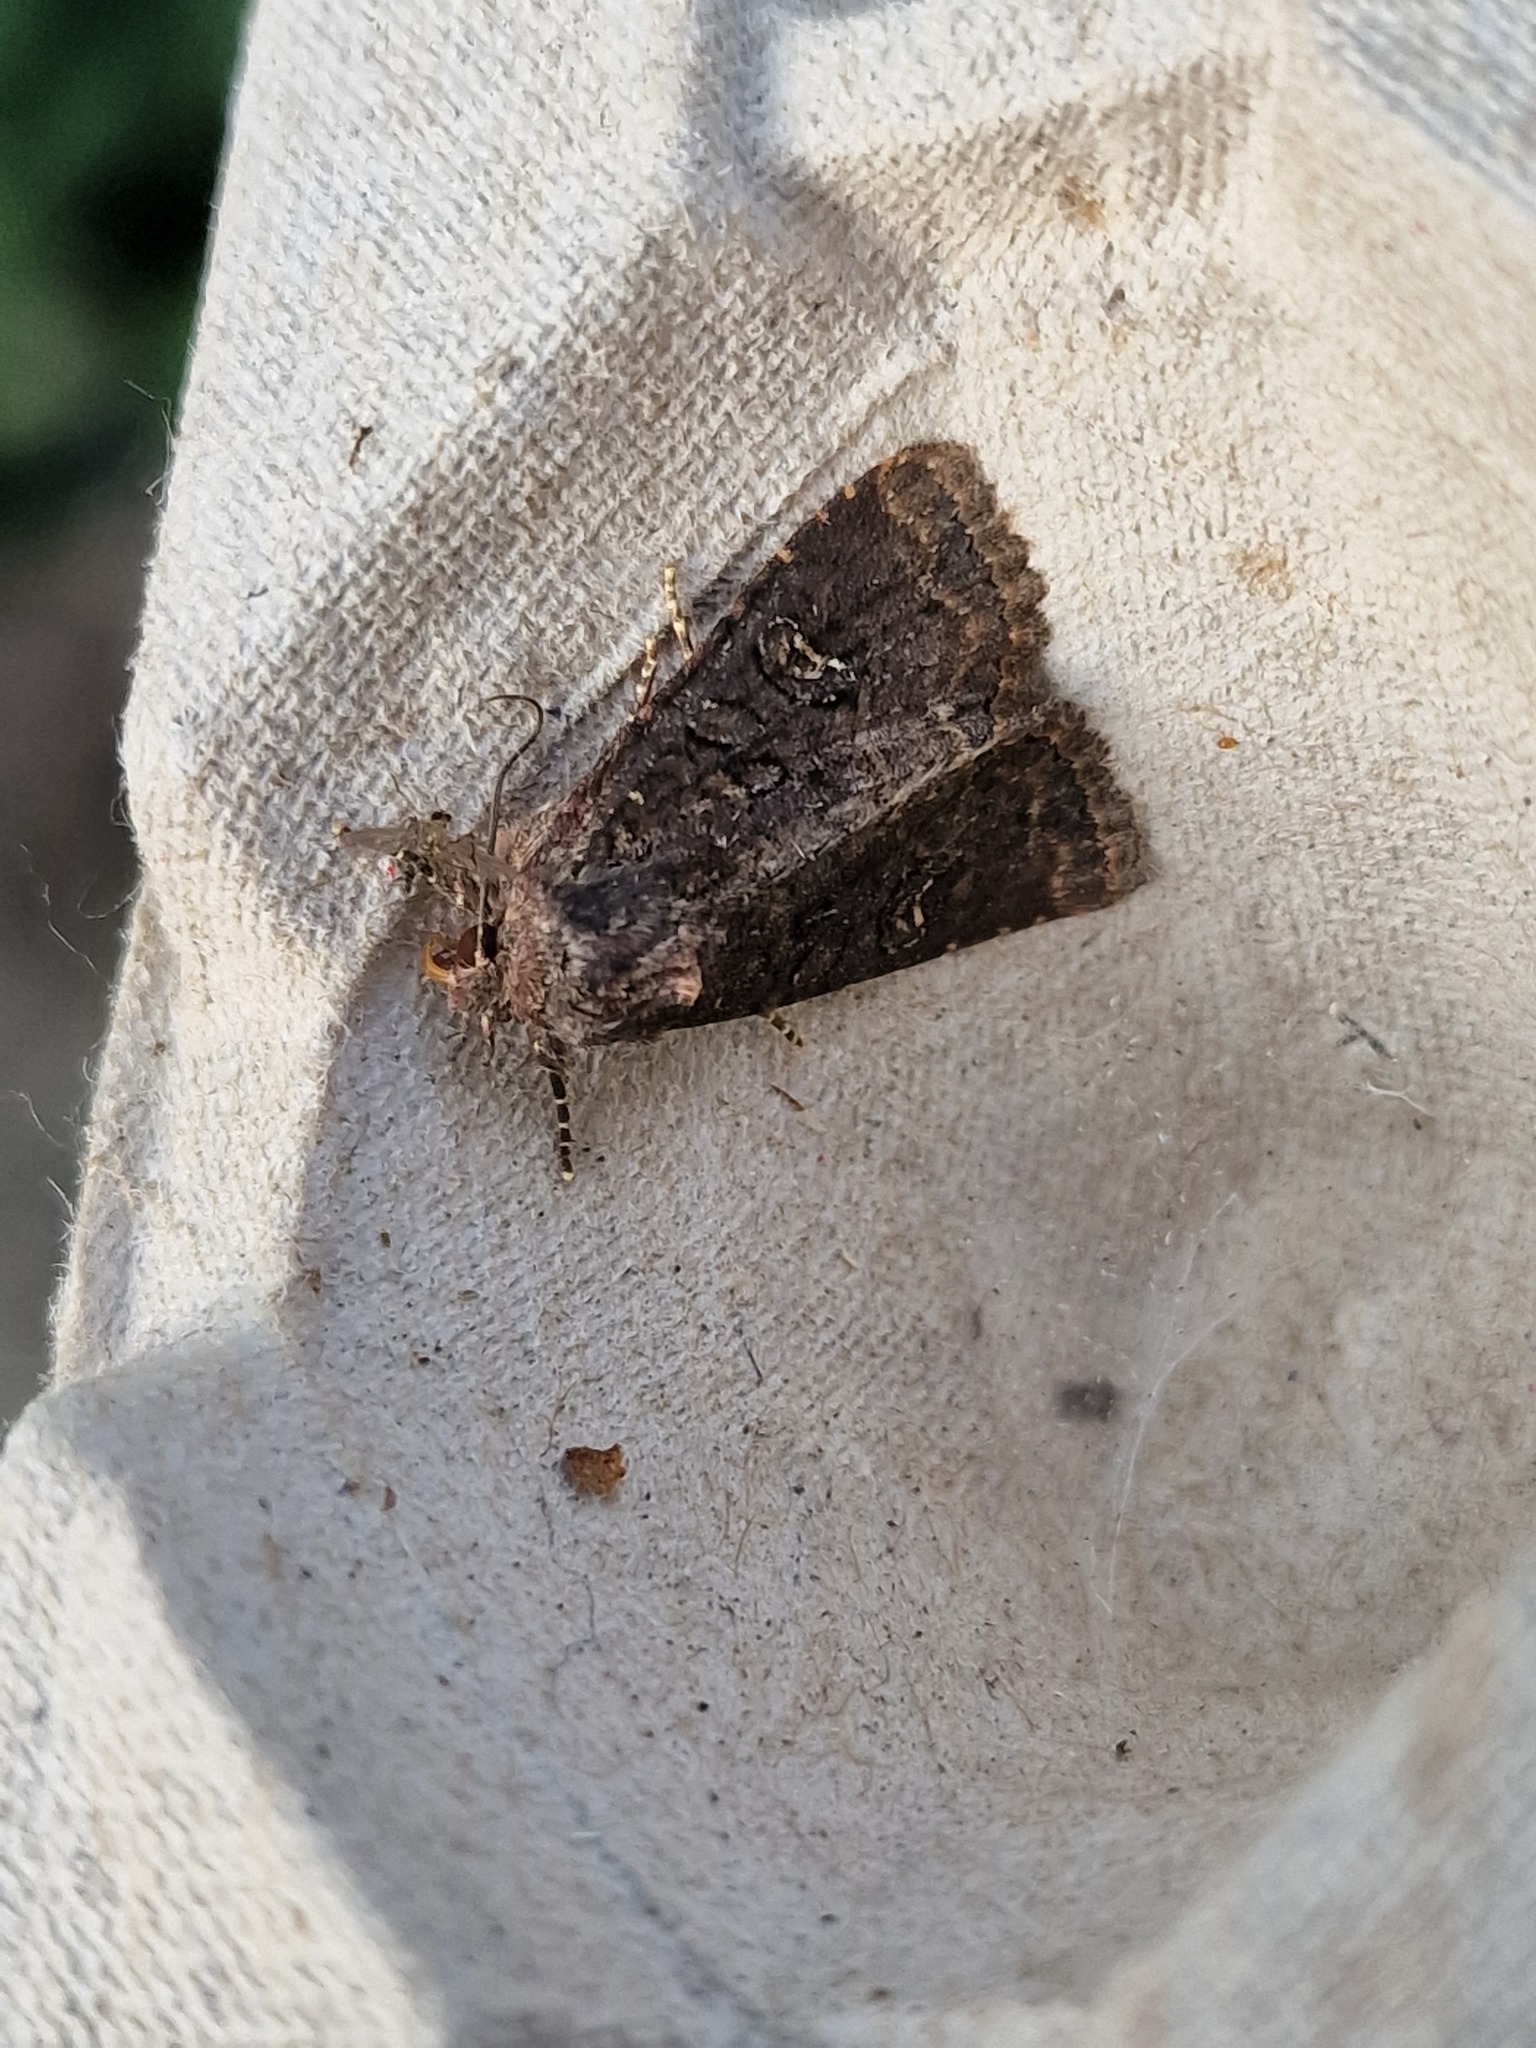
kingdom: Animalia
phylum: Arthropoda
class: Insecta
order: Lepidoptera
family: Noctuidae
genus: Mesapamea
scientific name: Mesapamea
